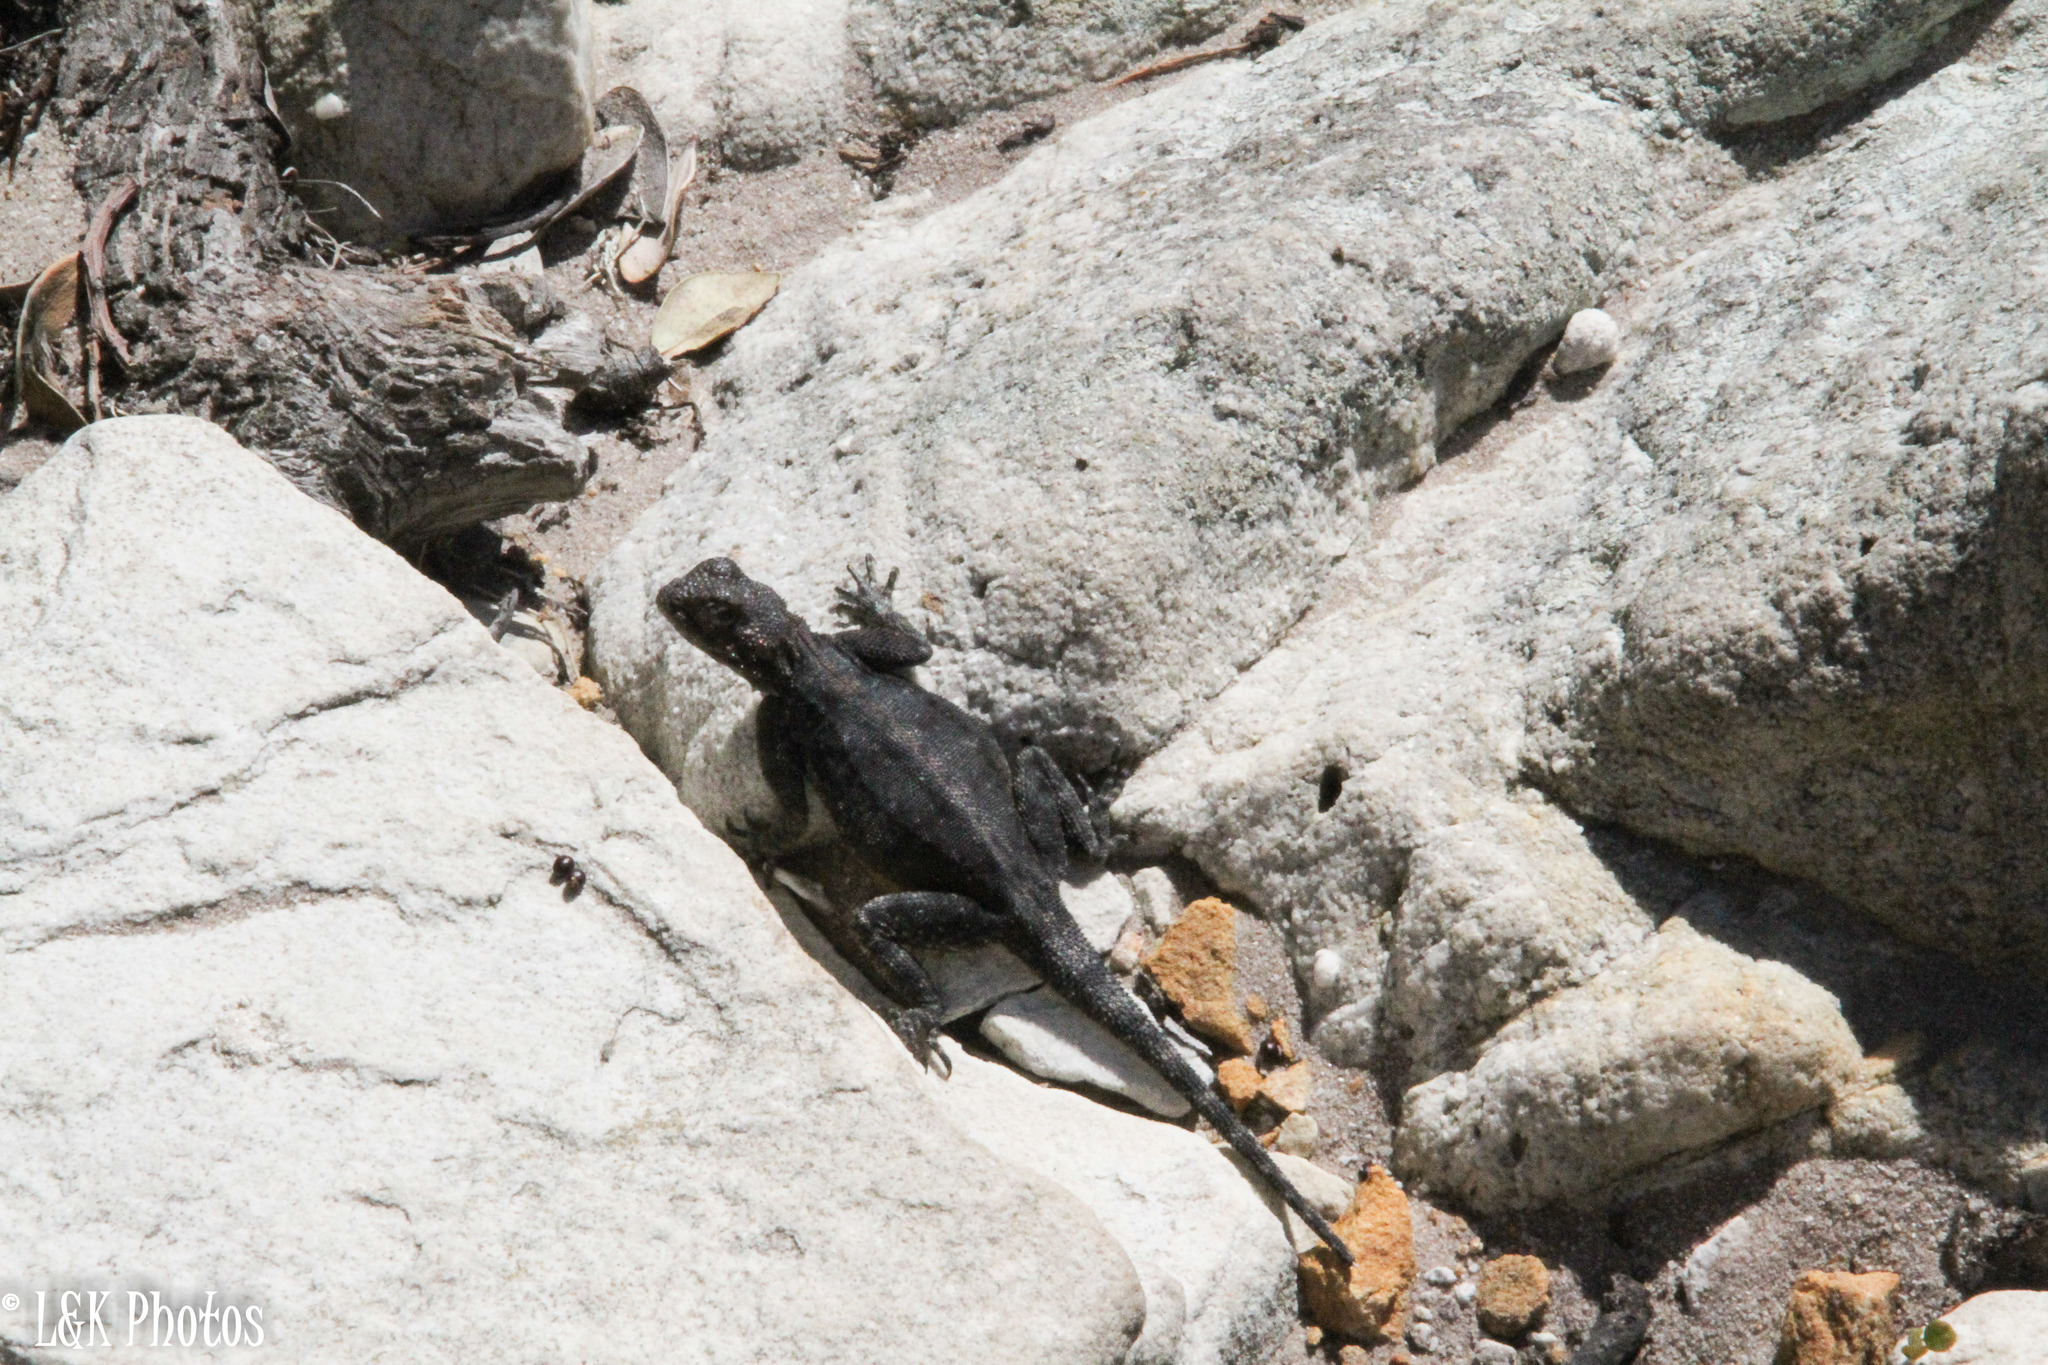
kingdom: Animalia
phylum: Chordata
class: Squamata
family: Agamidae
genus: Agama
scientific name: Agama atra
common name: Southern african rock agama
